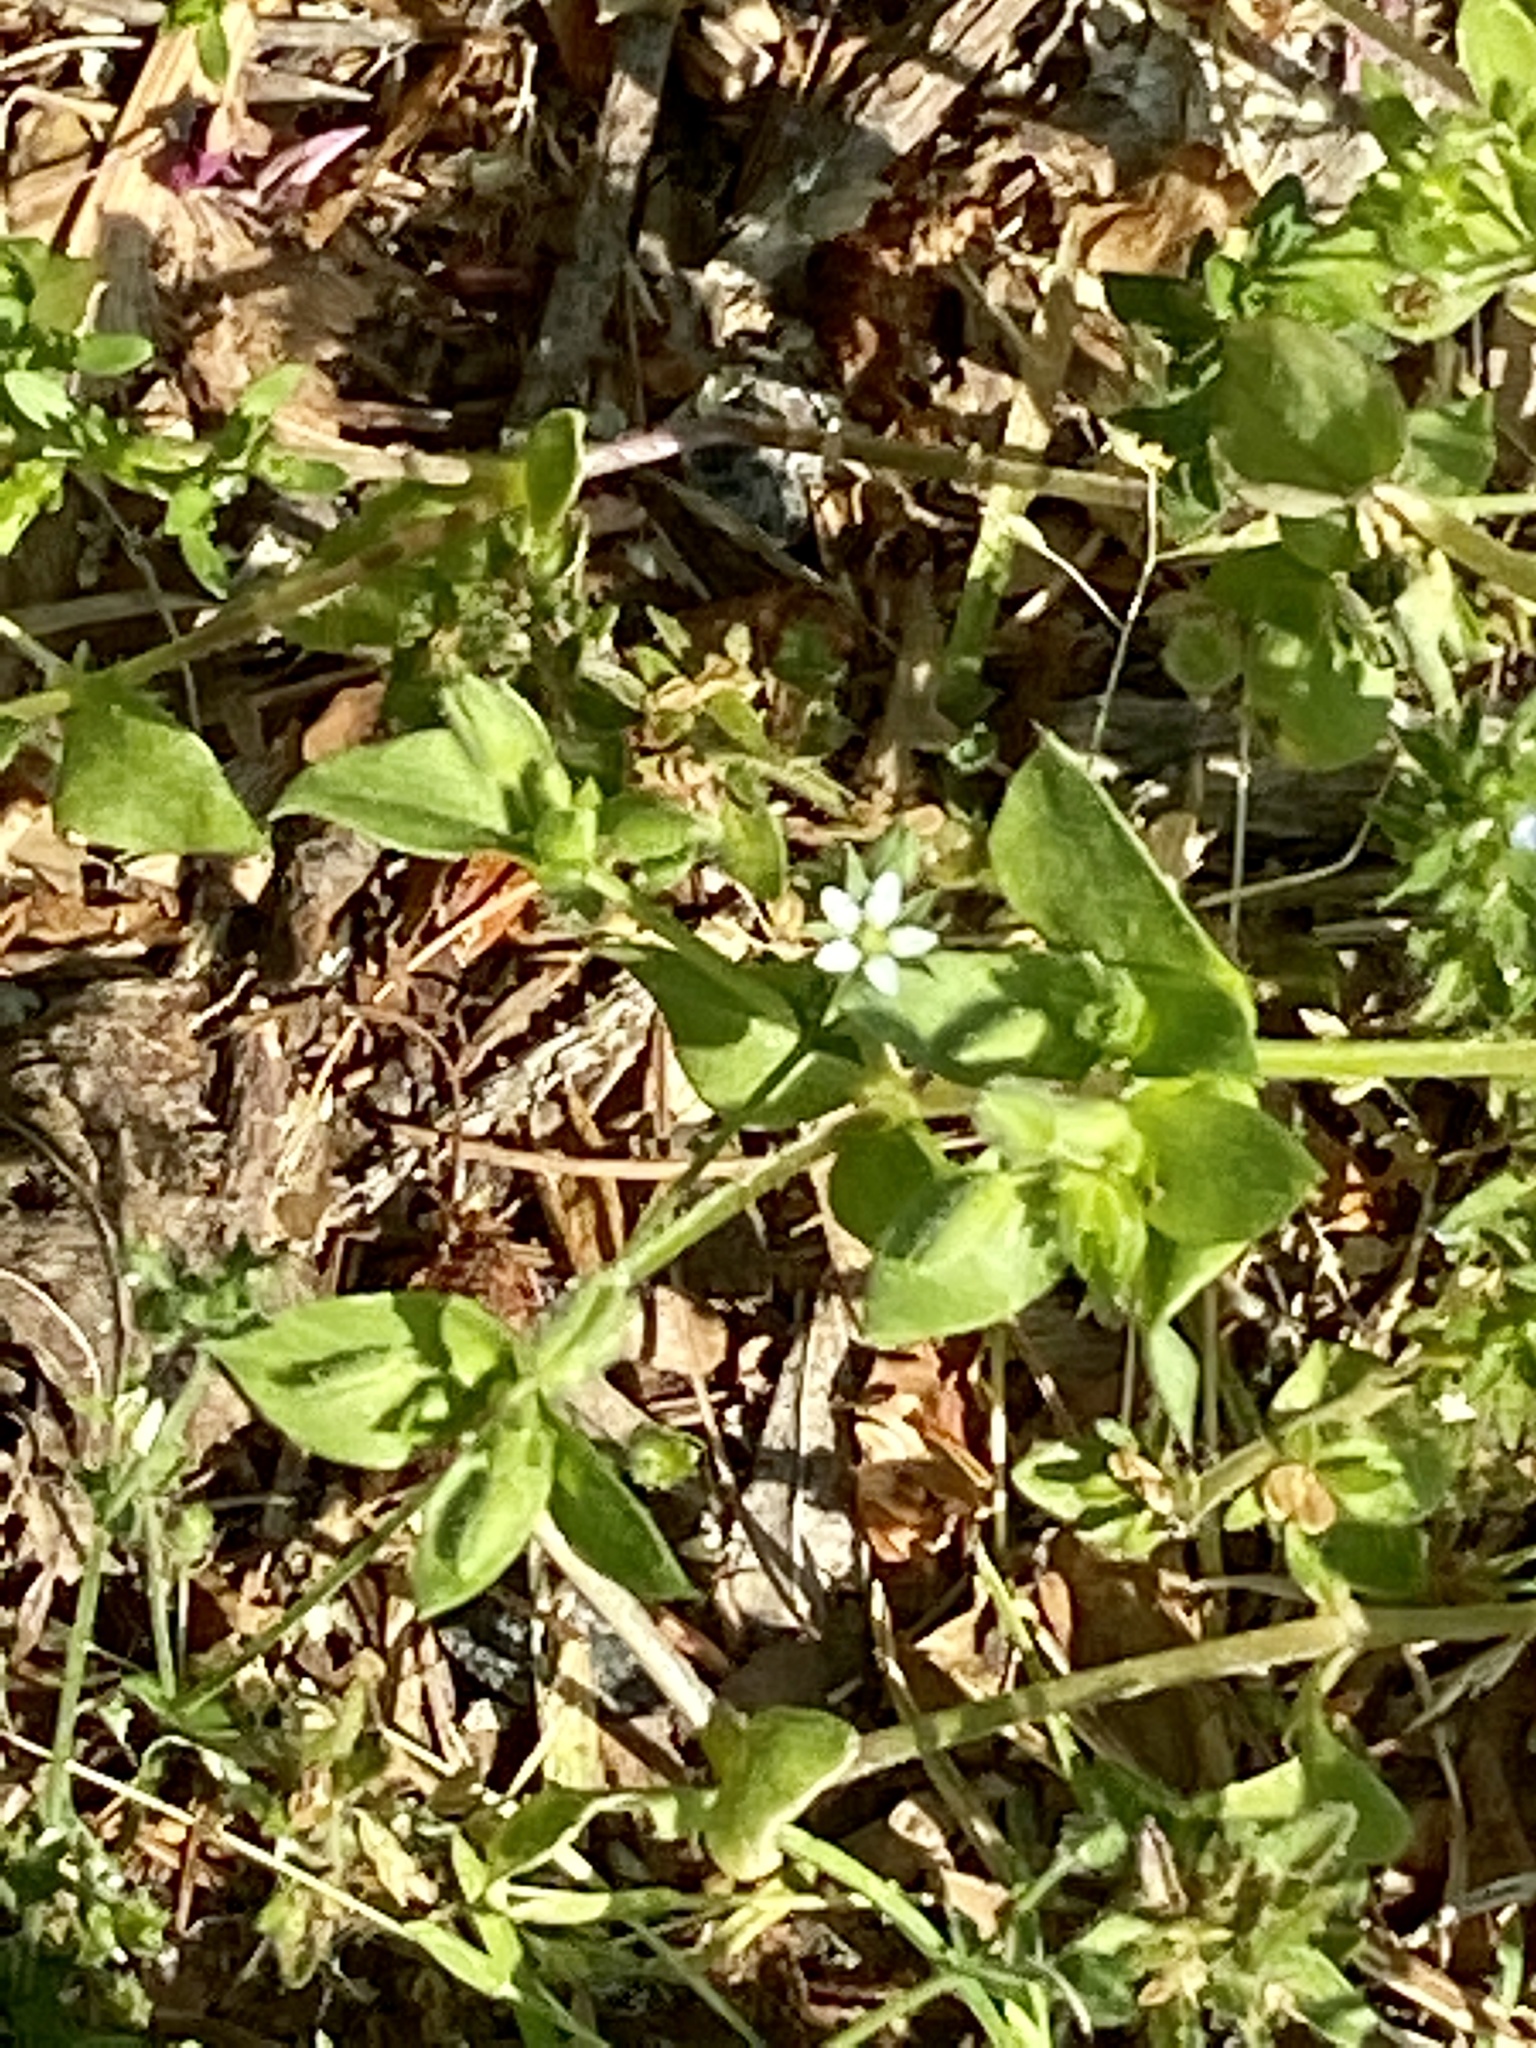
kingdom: Plantae
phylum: Tracheophyta
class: Magnoliopsida
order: Caryophyllales
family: Caryophyllaceae
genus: Arenaria
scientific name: Arenaria serpyllifolia
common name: Thyme-leaved sandwort
